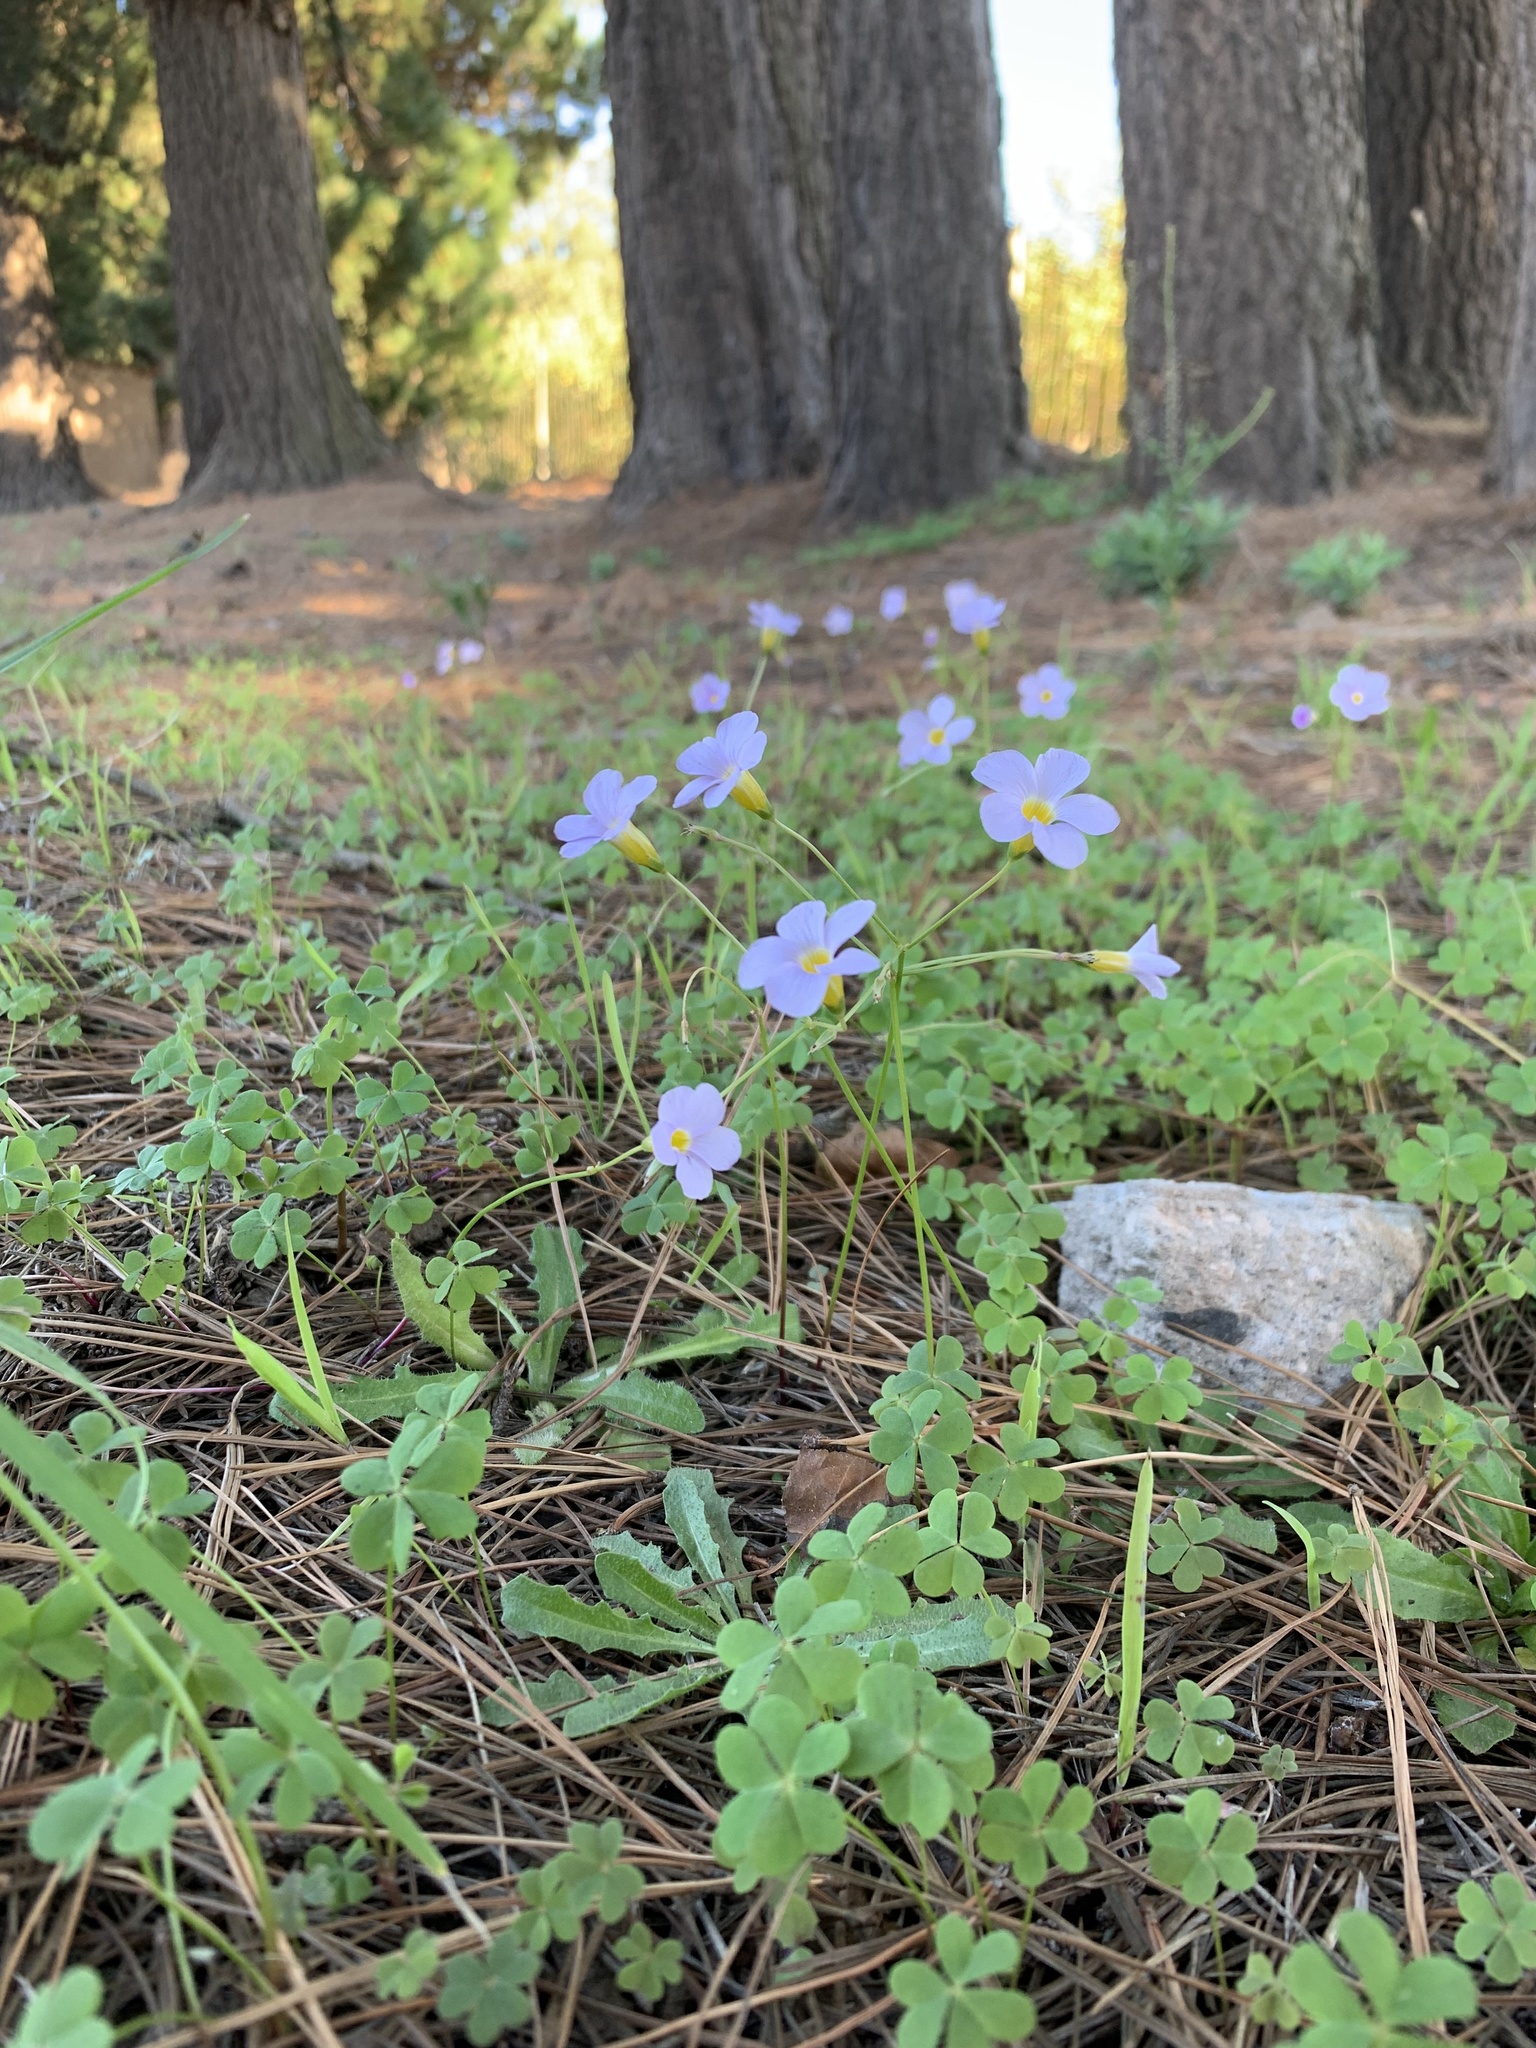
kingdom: Plantae
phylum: Tracheophyta
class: Magnoliopsida
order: Oxalidales
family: Oxalidaceae
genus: Oxalis
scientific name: Oxalis caprina
